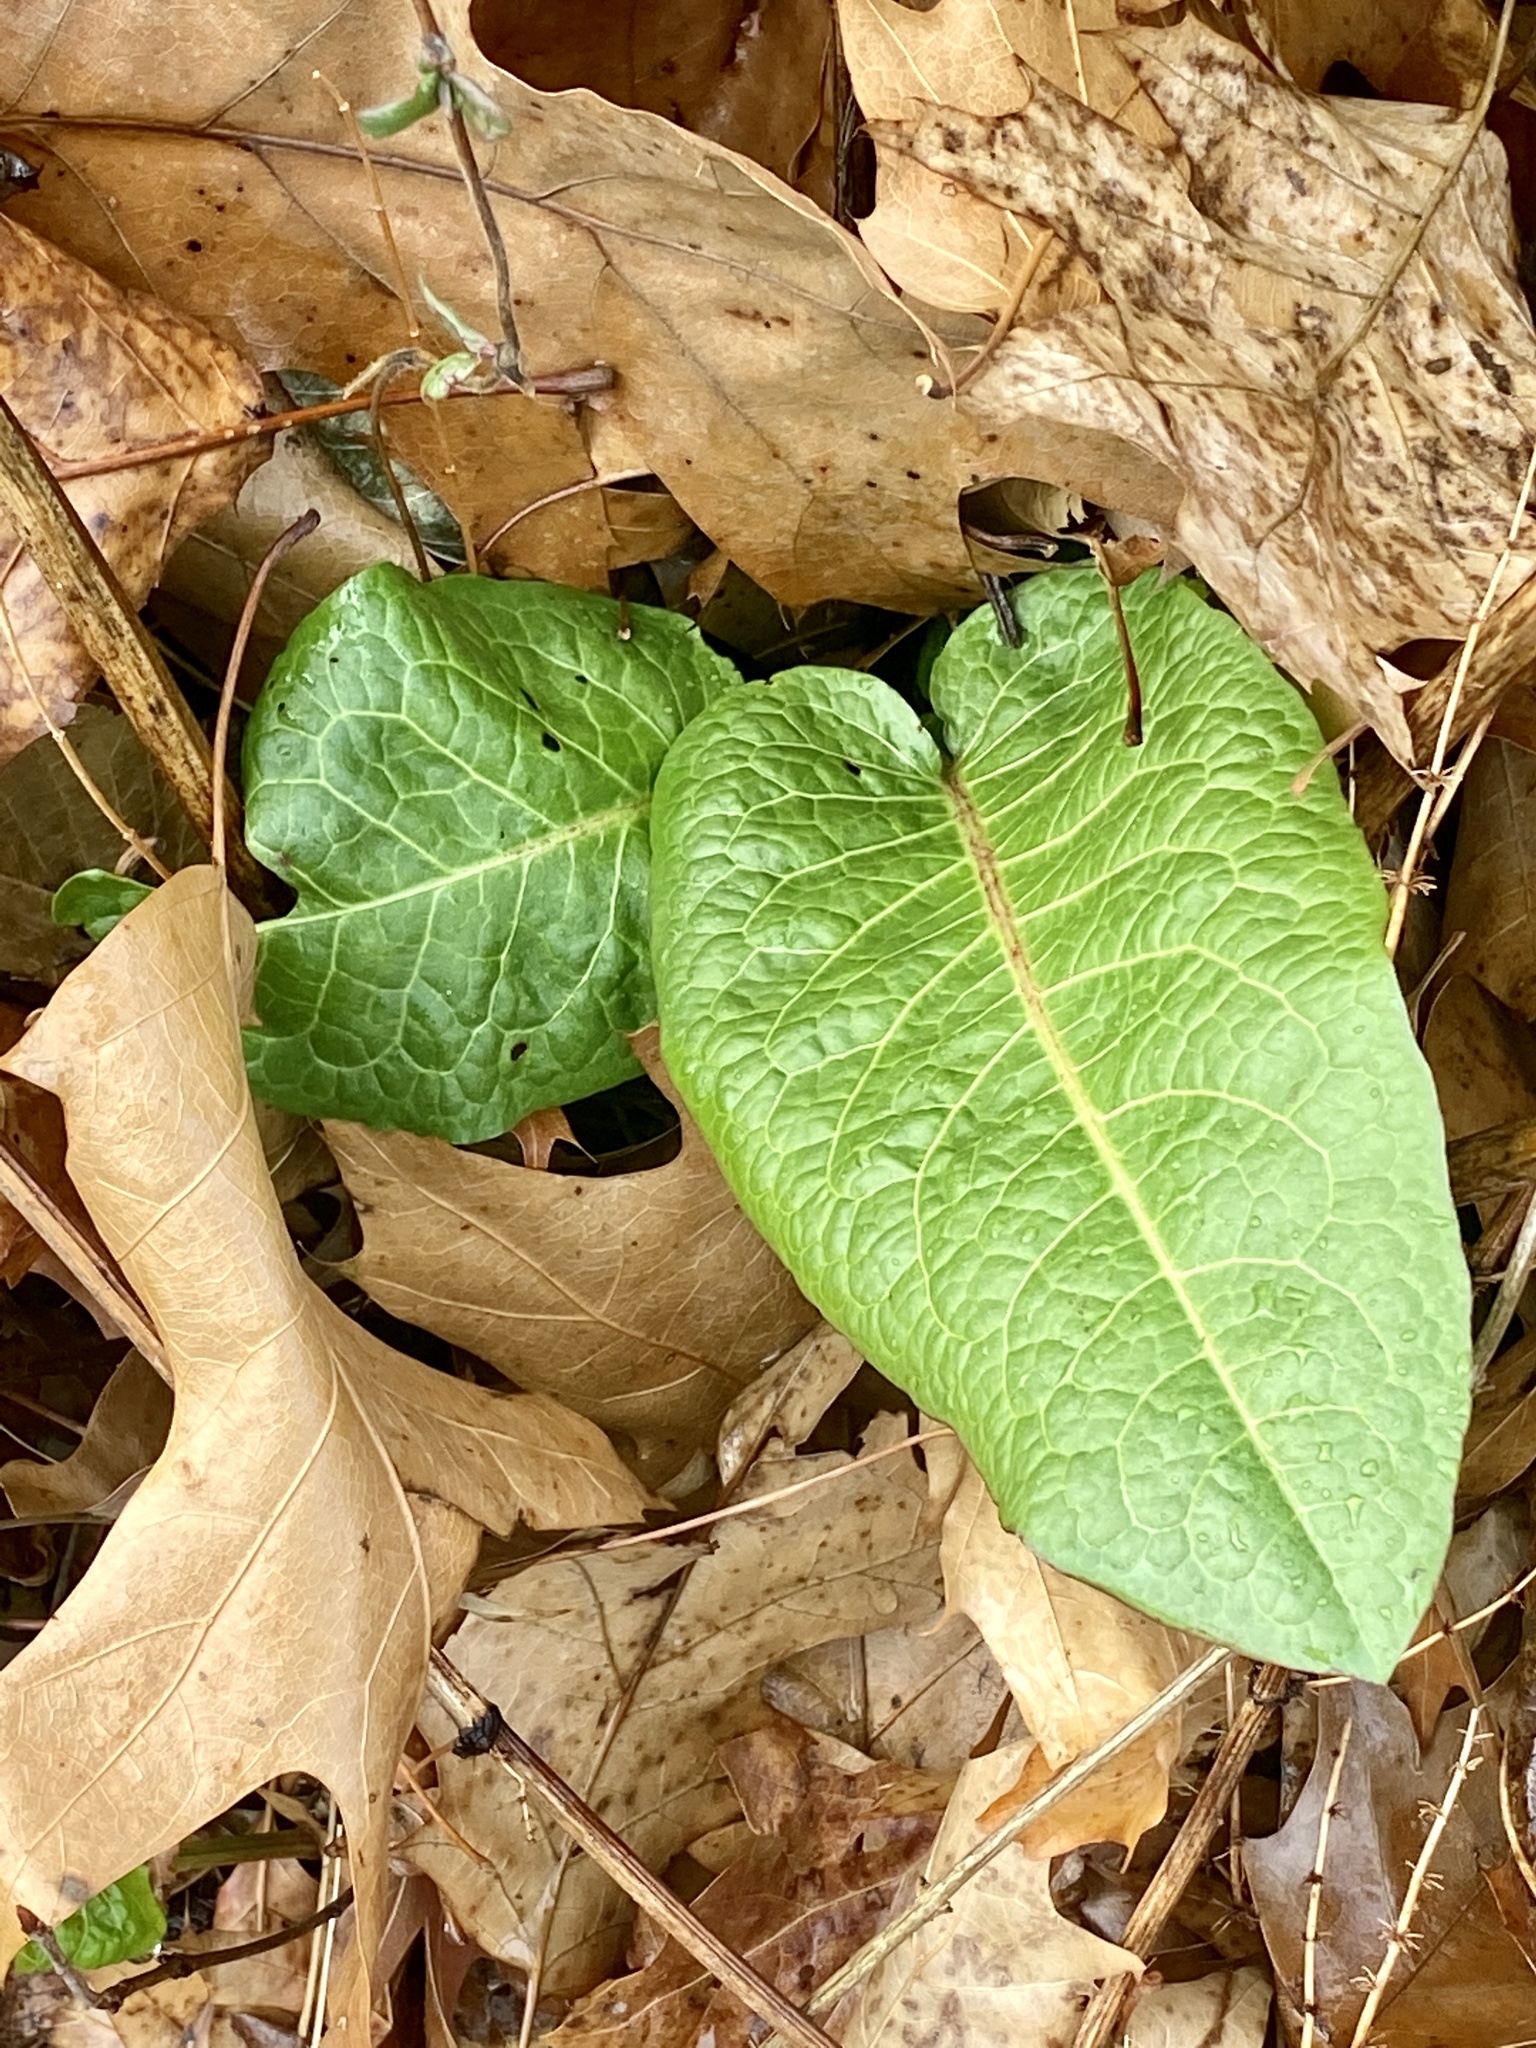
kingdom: Plantae
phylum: Tracheophyta
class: Magnoliopsida
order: Caryophyllales
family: Polygonaceae
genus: Rumex
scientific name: Rumex obtusifolius
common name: Bitter dock
